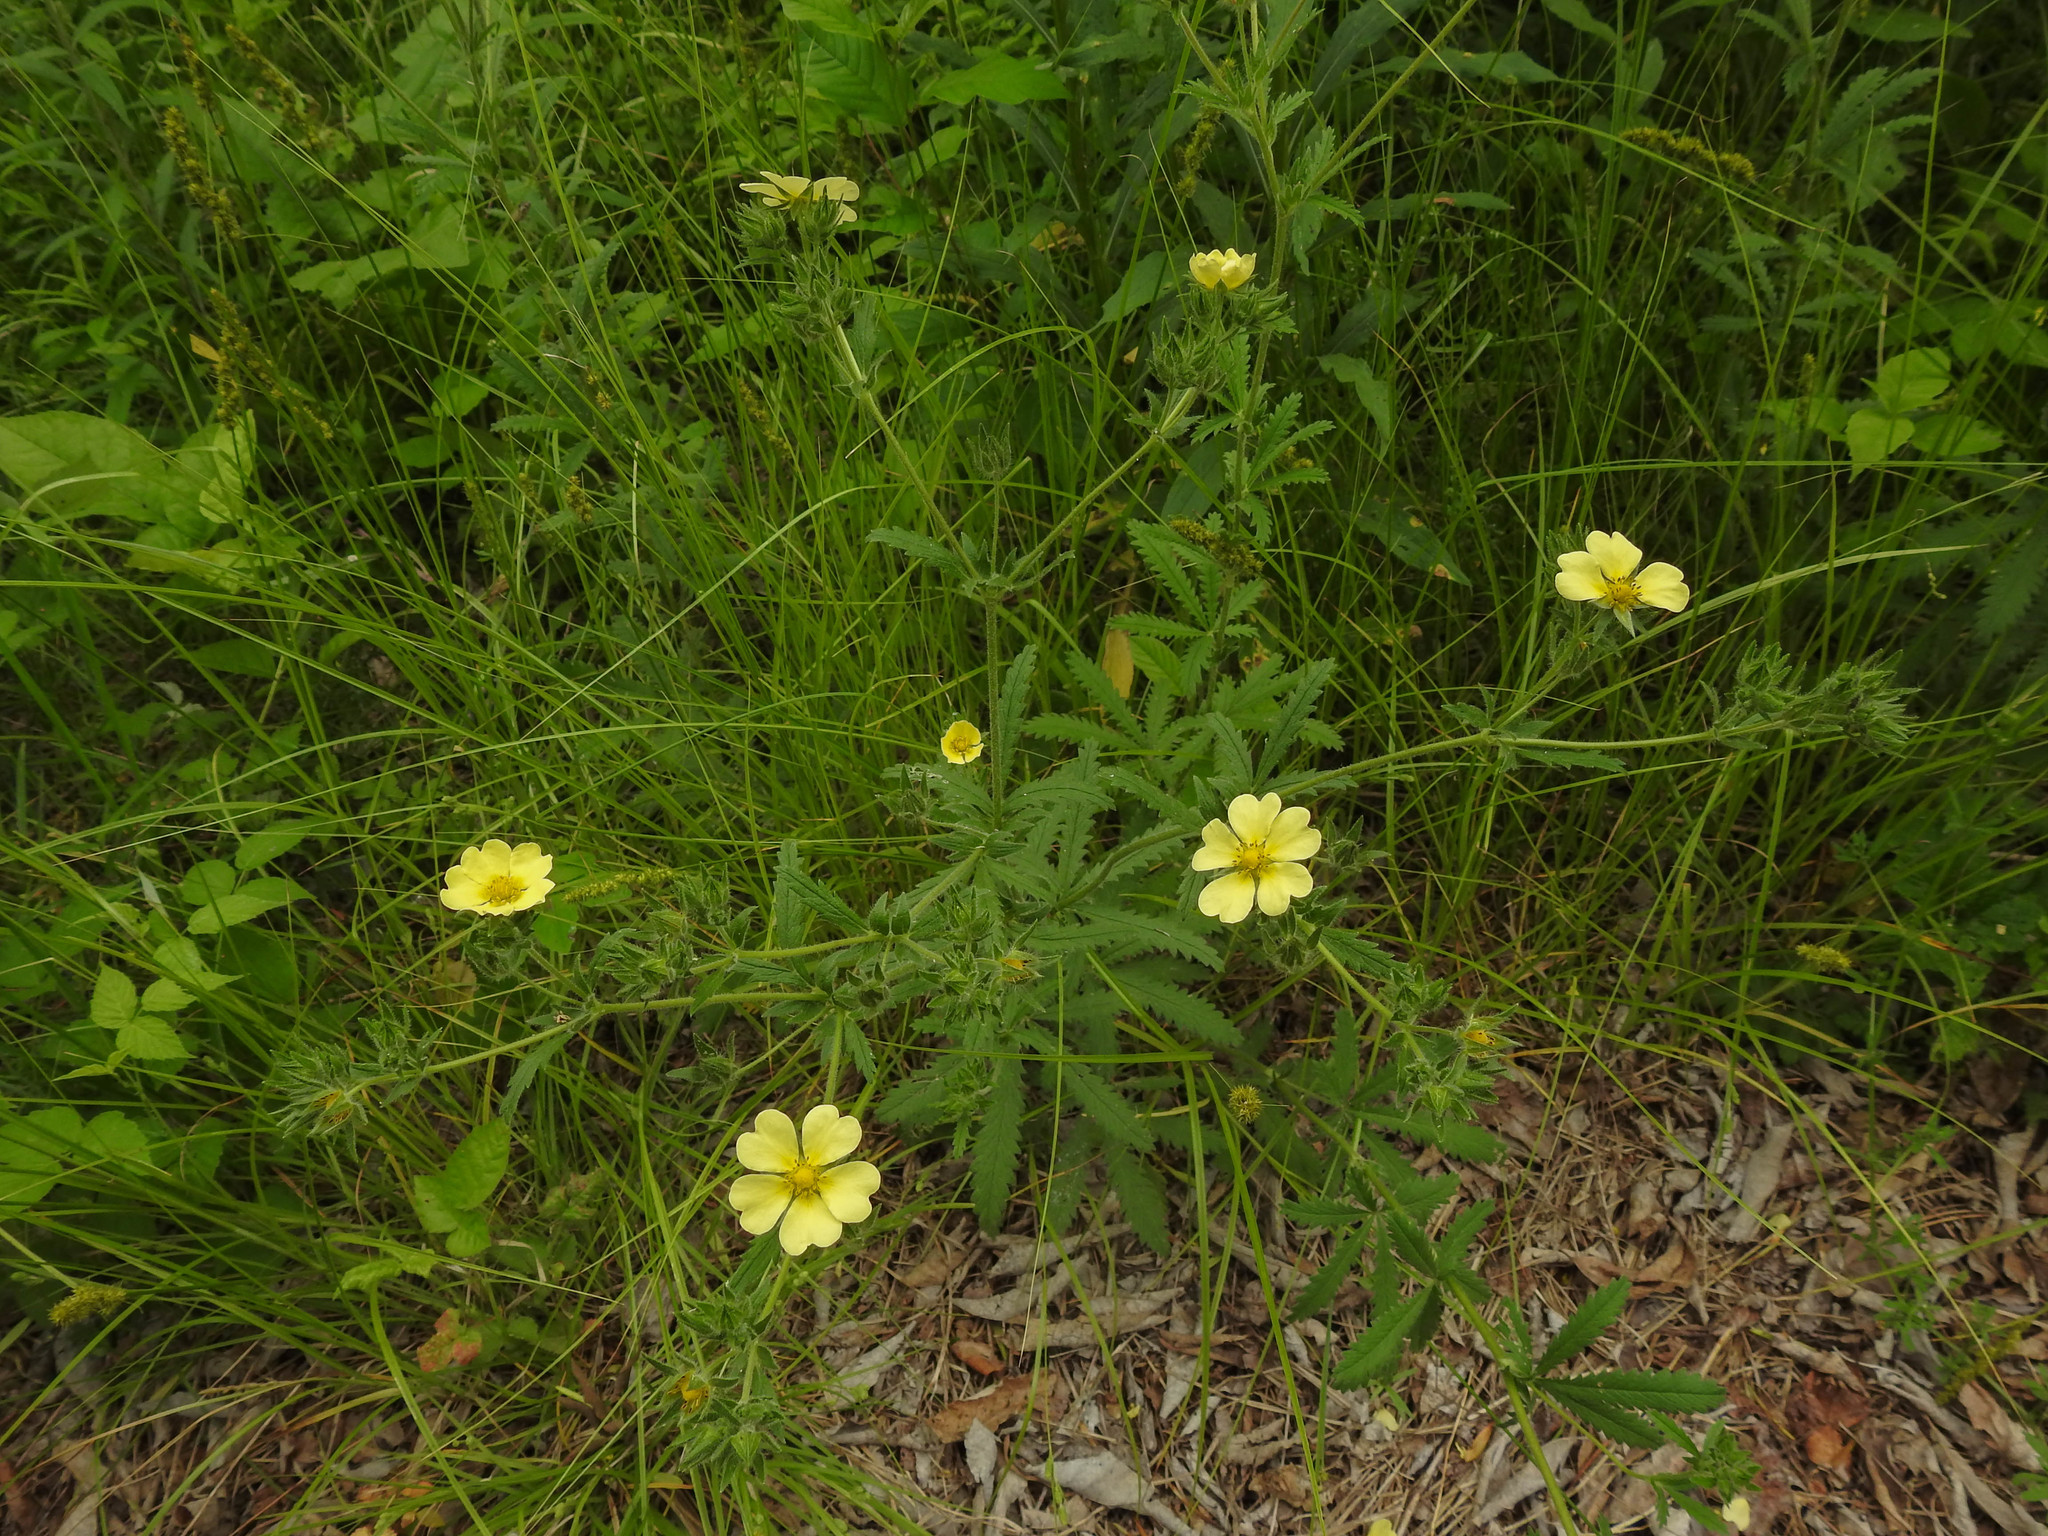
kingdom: Plantae
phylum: Tracheophyta
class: Magnoliopsida
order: Rosales
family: Rosaceae
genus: Potentilla
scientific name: Potentilla recta
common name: Sulphur cinquefoil
